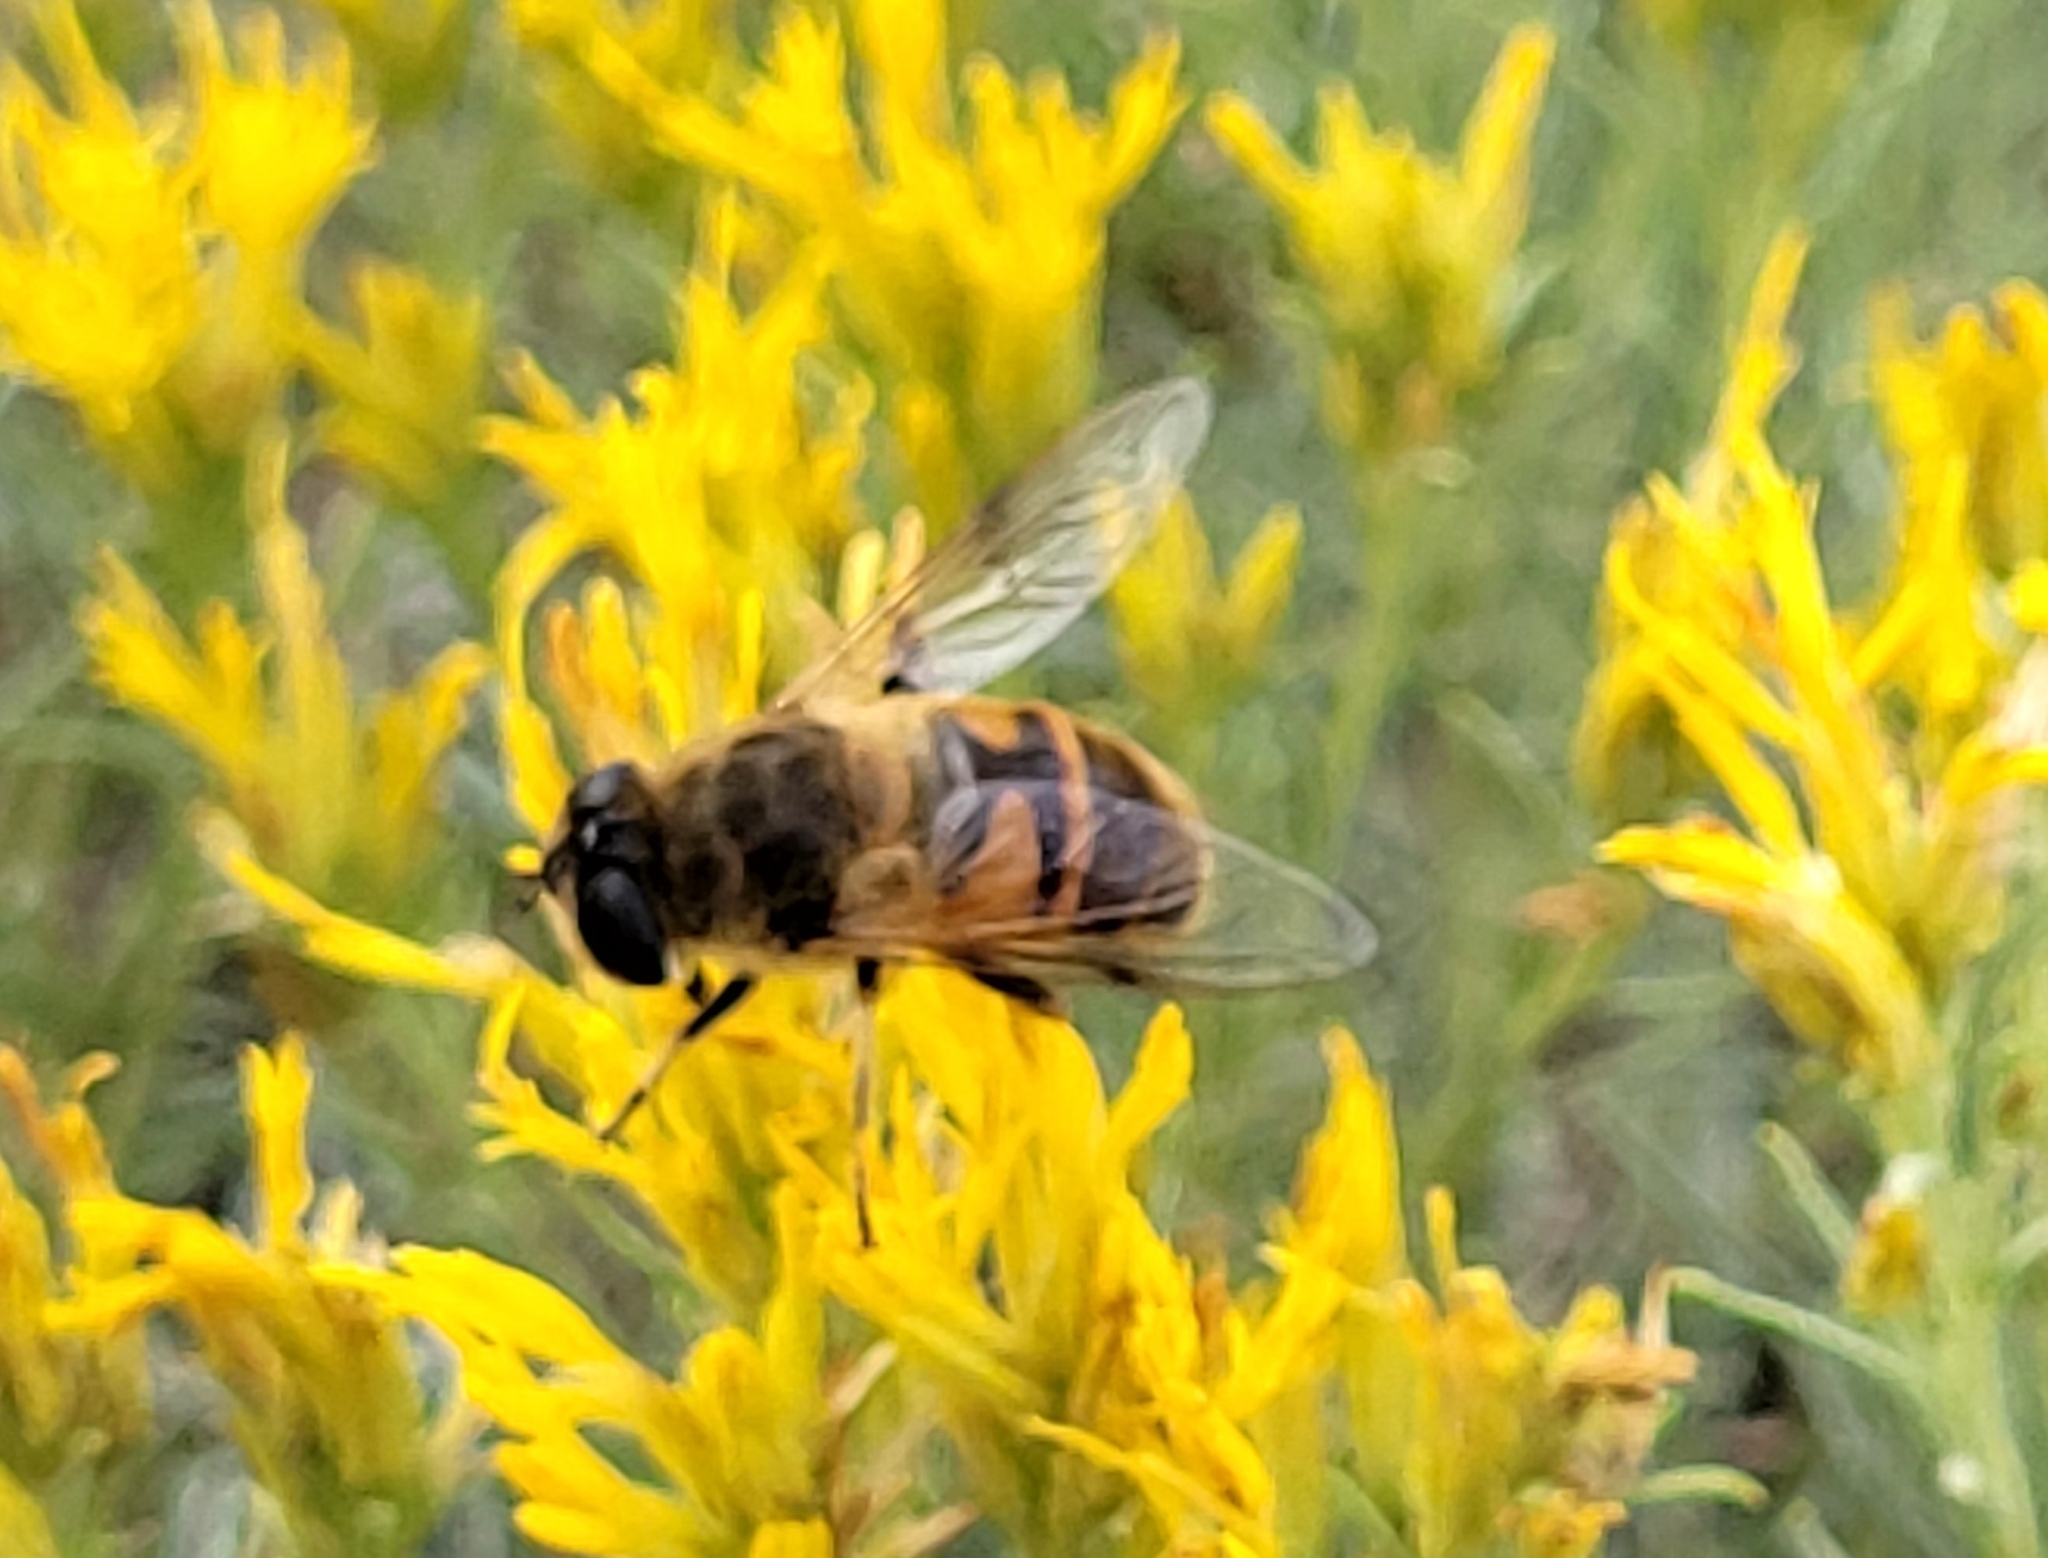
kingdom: Animalia
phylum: Arthropoda
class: Insecta
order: Diptera
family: Syrphidae
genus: Eristalis
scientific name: Eristalis tenax
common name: Drone fly
